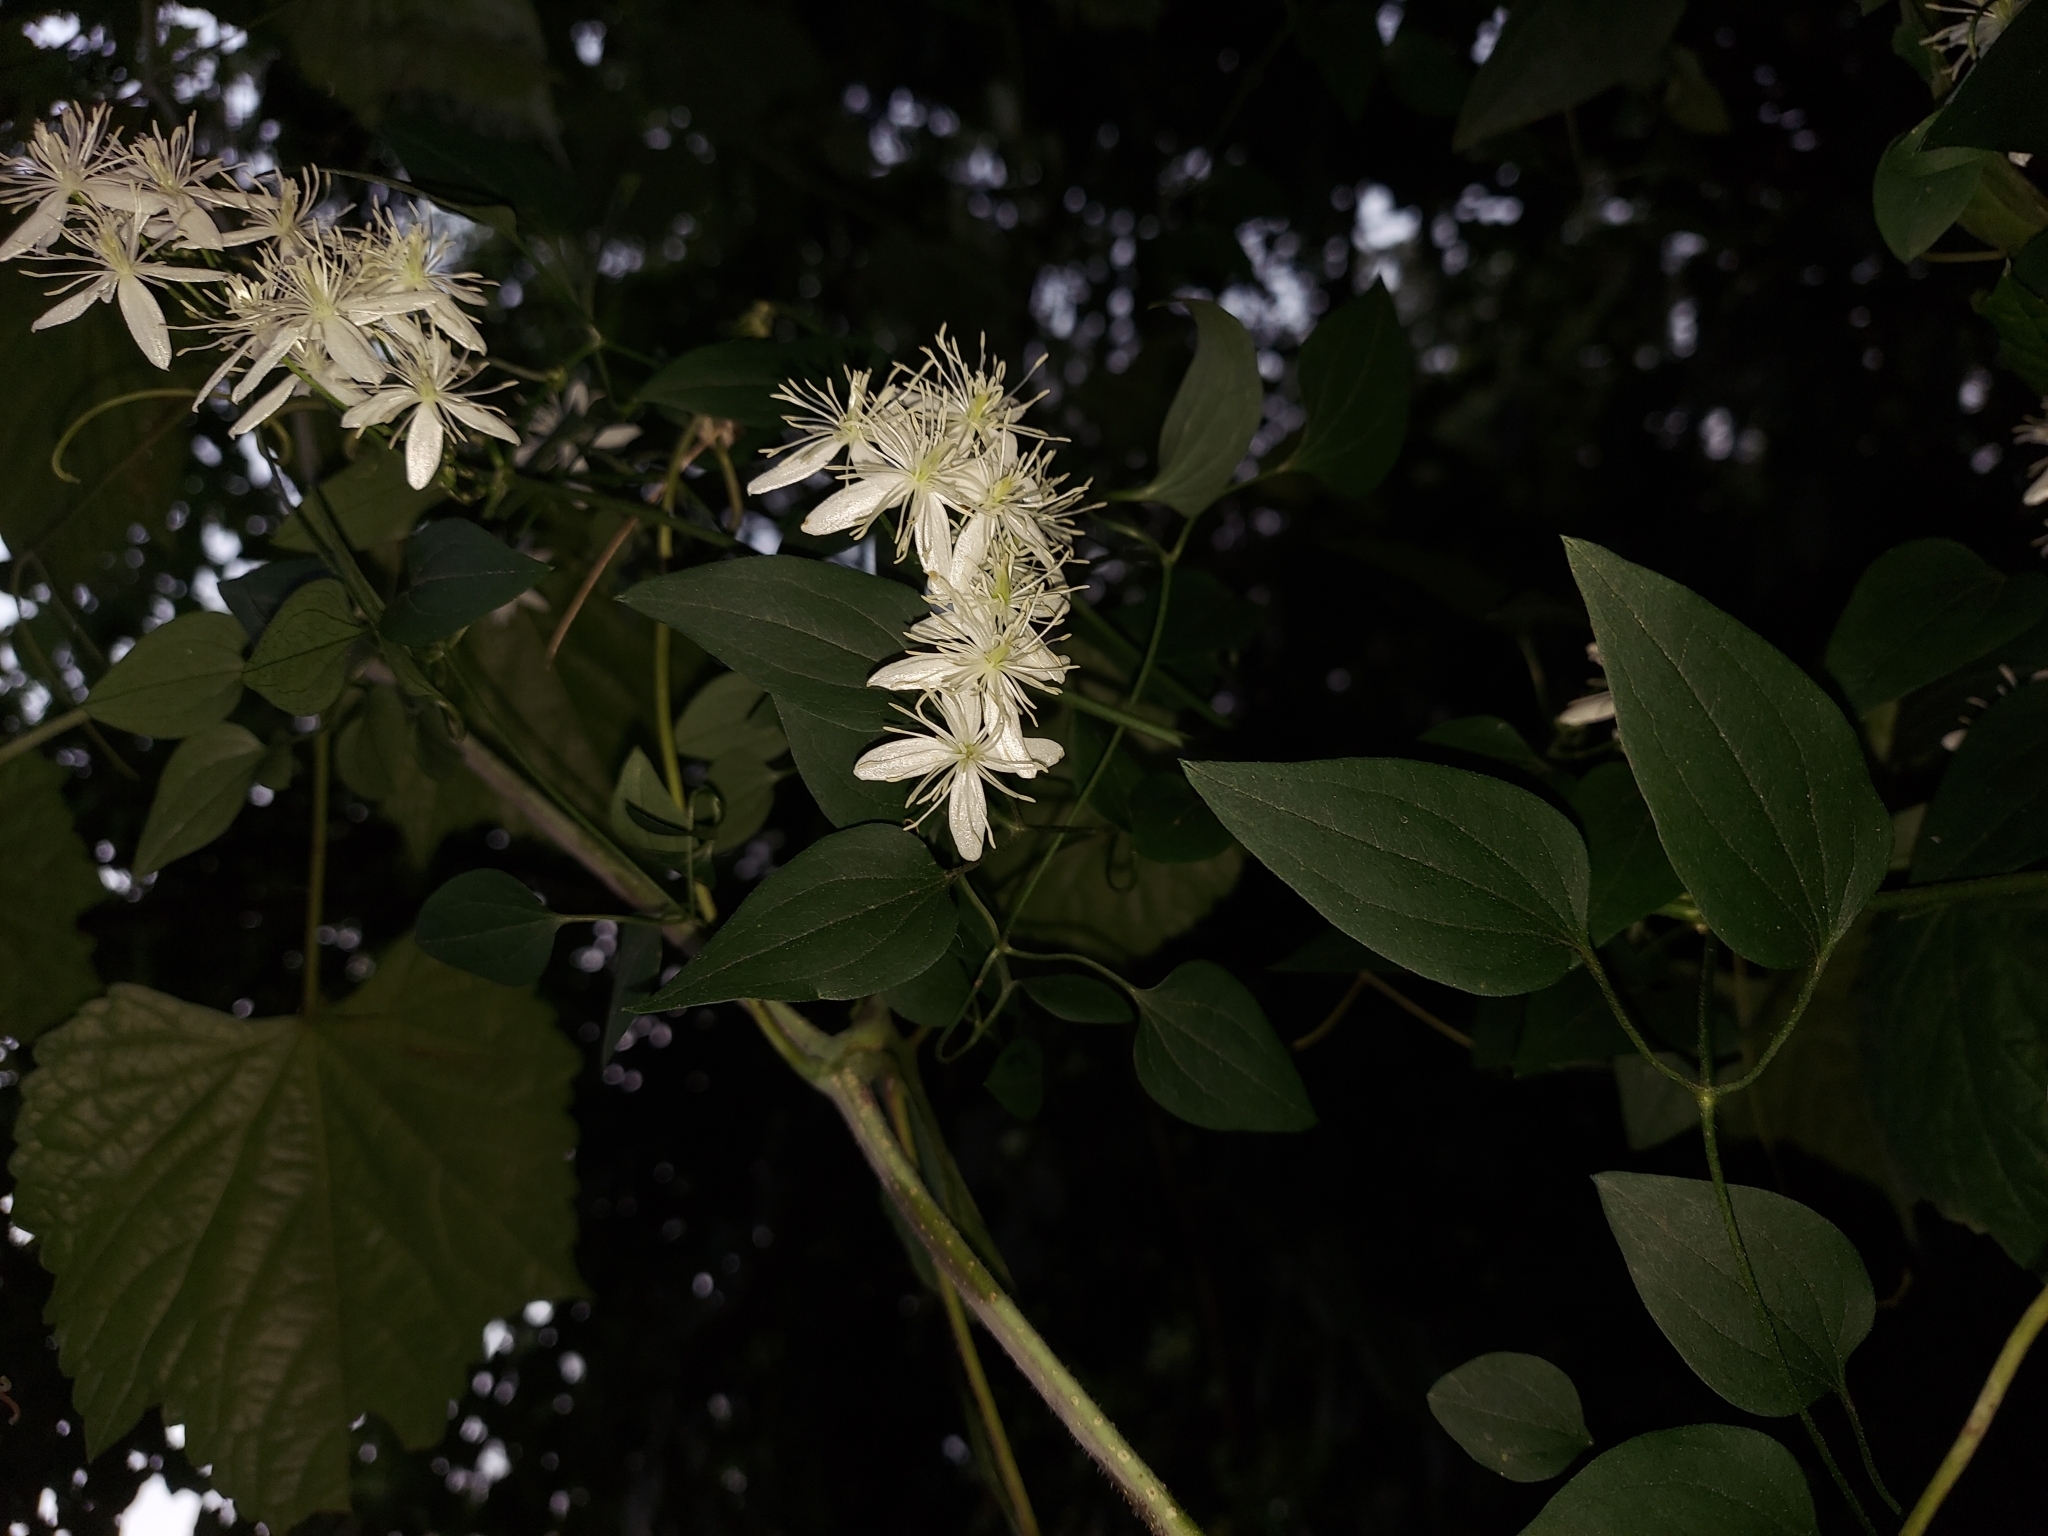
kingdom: Plantae
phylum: Tracheophyta
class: Magnoliopsida
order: Ranunculales
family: Ranunculaceae
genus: Clematis
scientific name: Clematis terniflora
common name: Sweet autumn clematis
